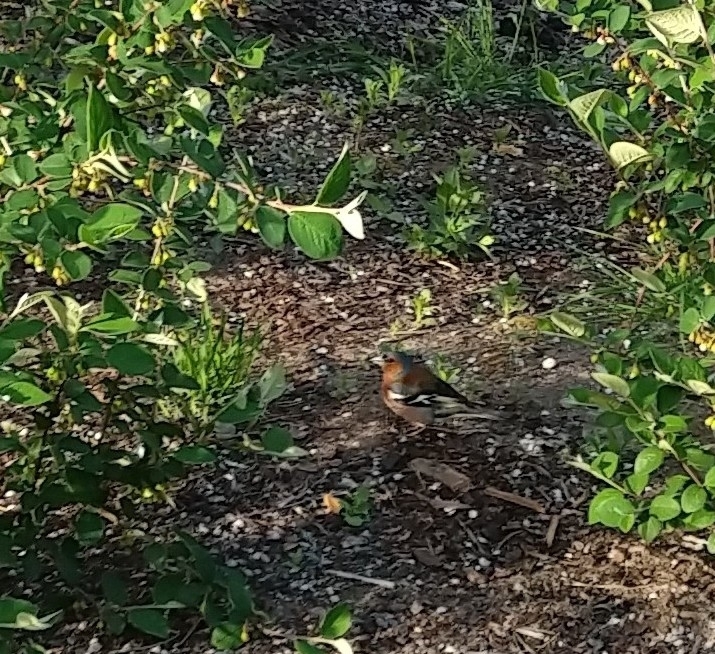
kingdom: Animalia
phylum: Chordata
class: Aves
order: Passeriformes
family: Fringillidae
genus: Fringilla
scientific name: Fringilla coelebs
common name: Common chaffinch
